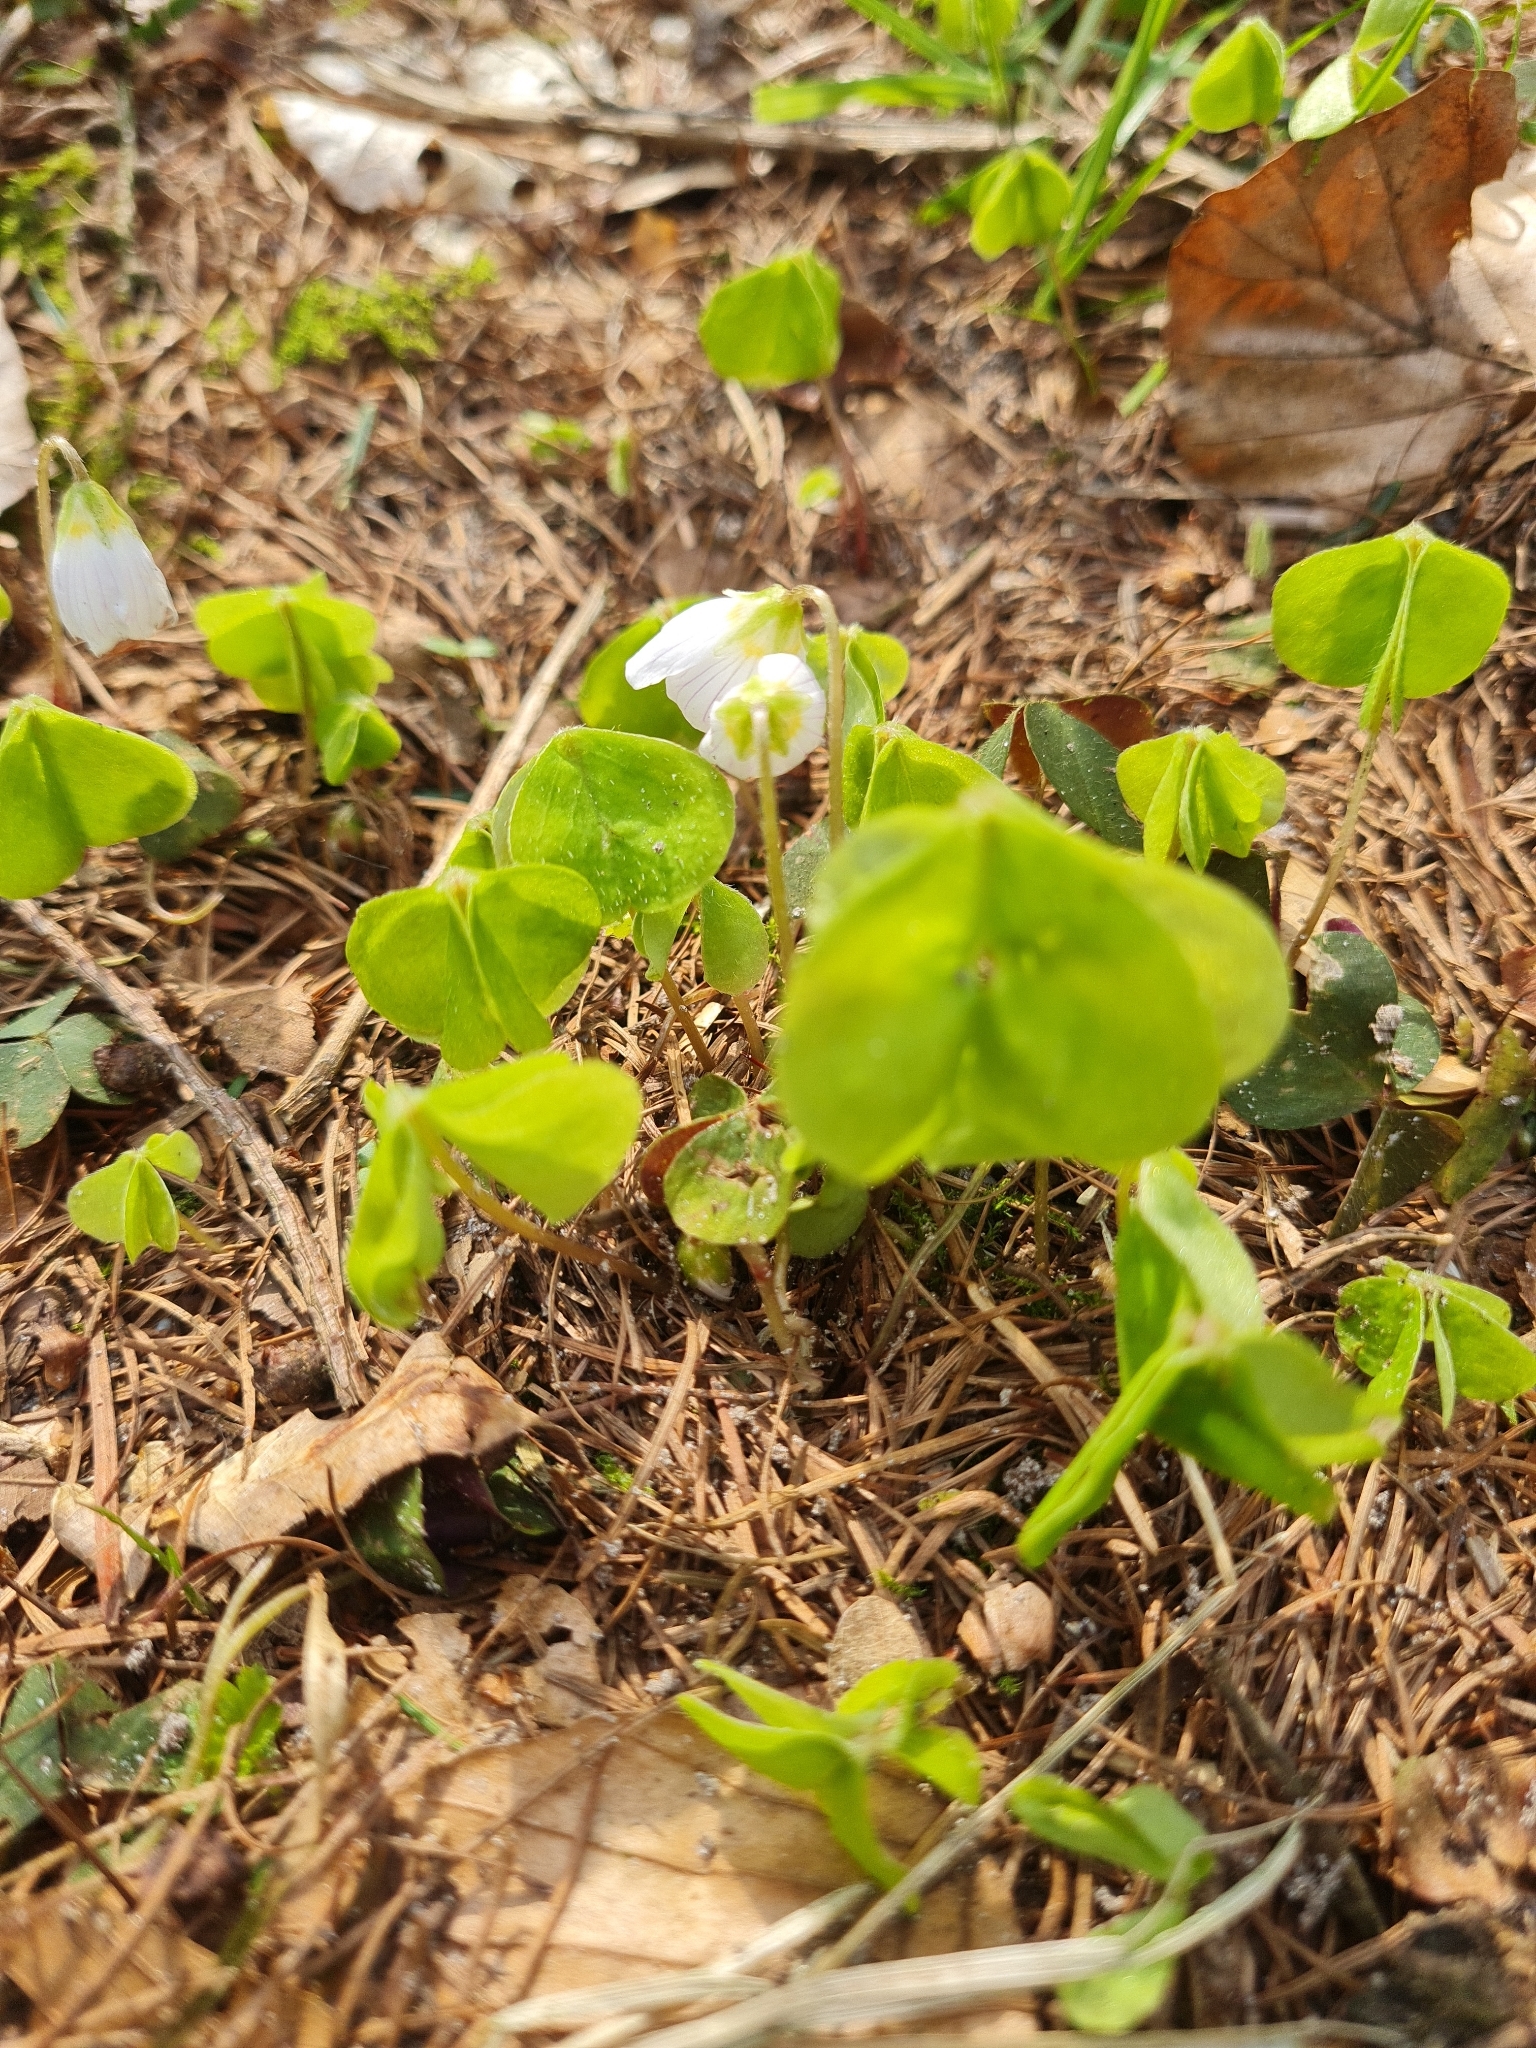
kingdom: Plantae
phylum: Tracheophyta
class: Magnoliopsida
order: Oxalidales
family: Oxalidaceae
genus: Oxalis
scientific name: Oxalis acetosella
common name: Wood-sorrel
